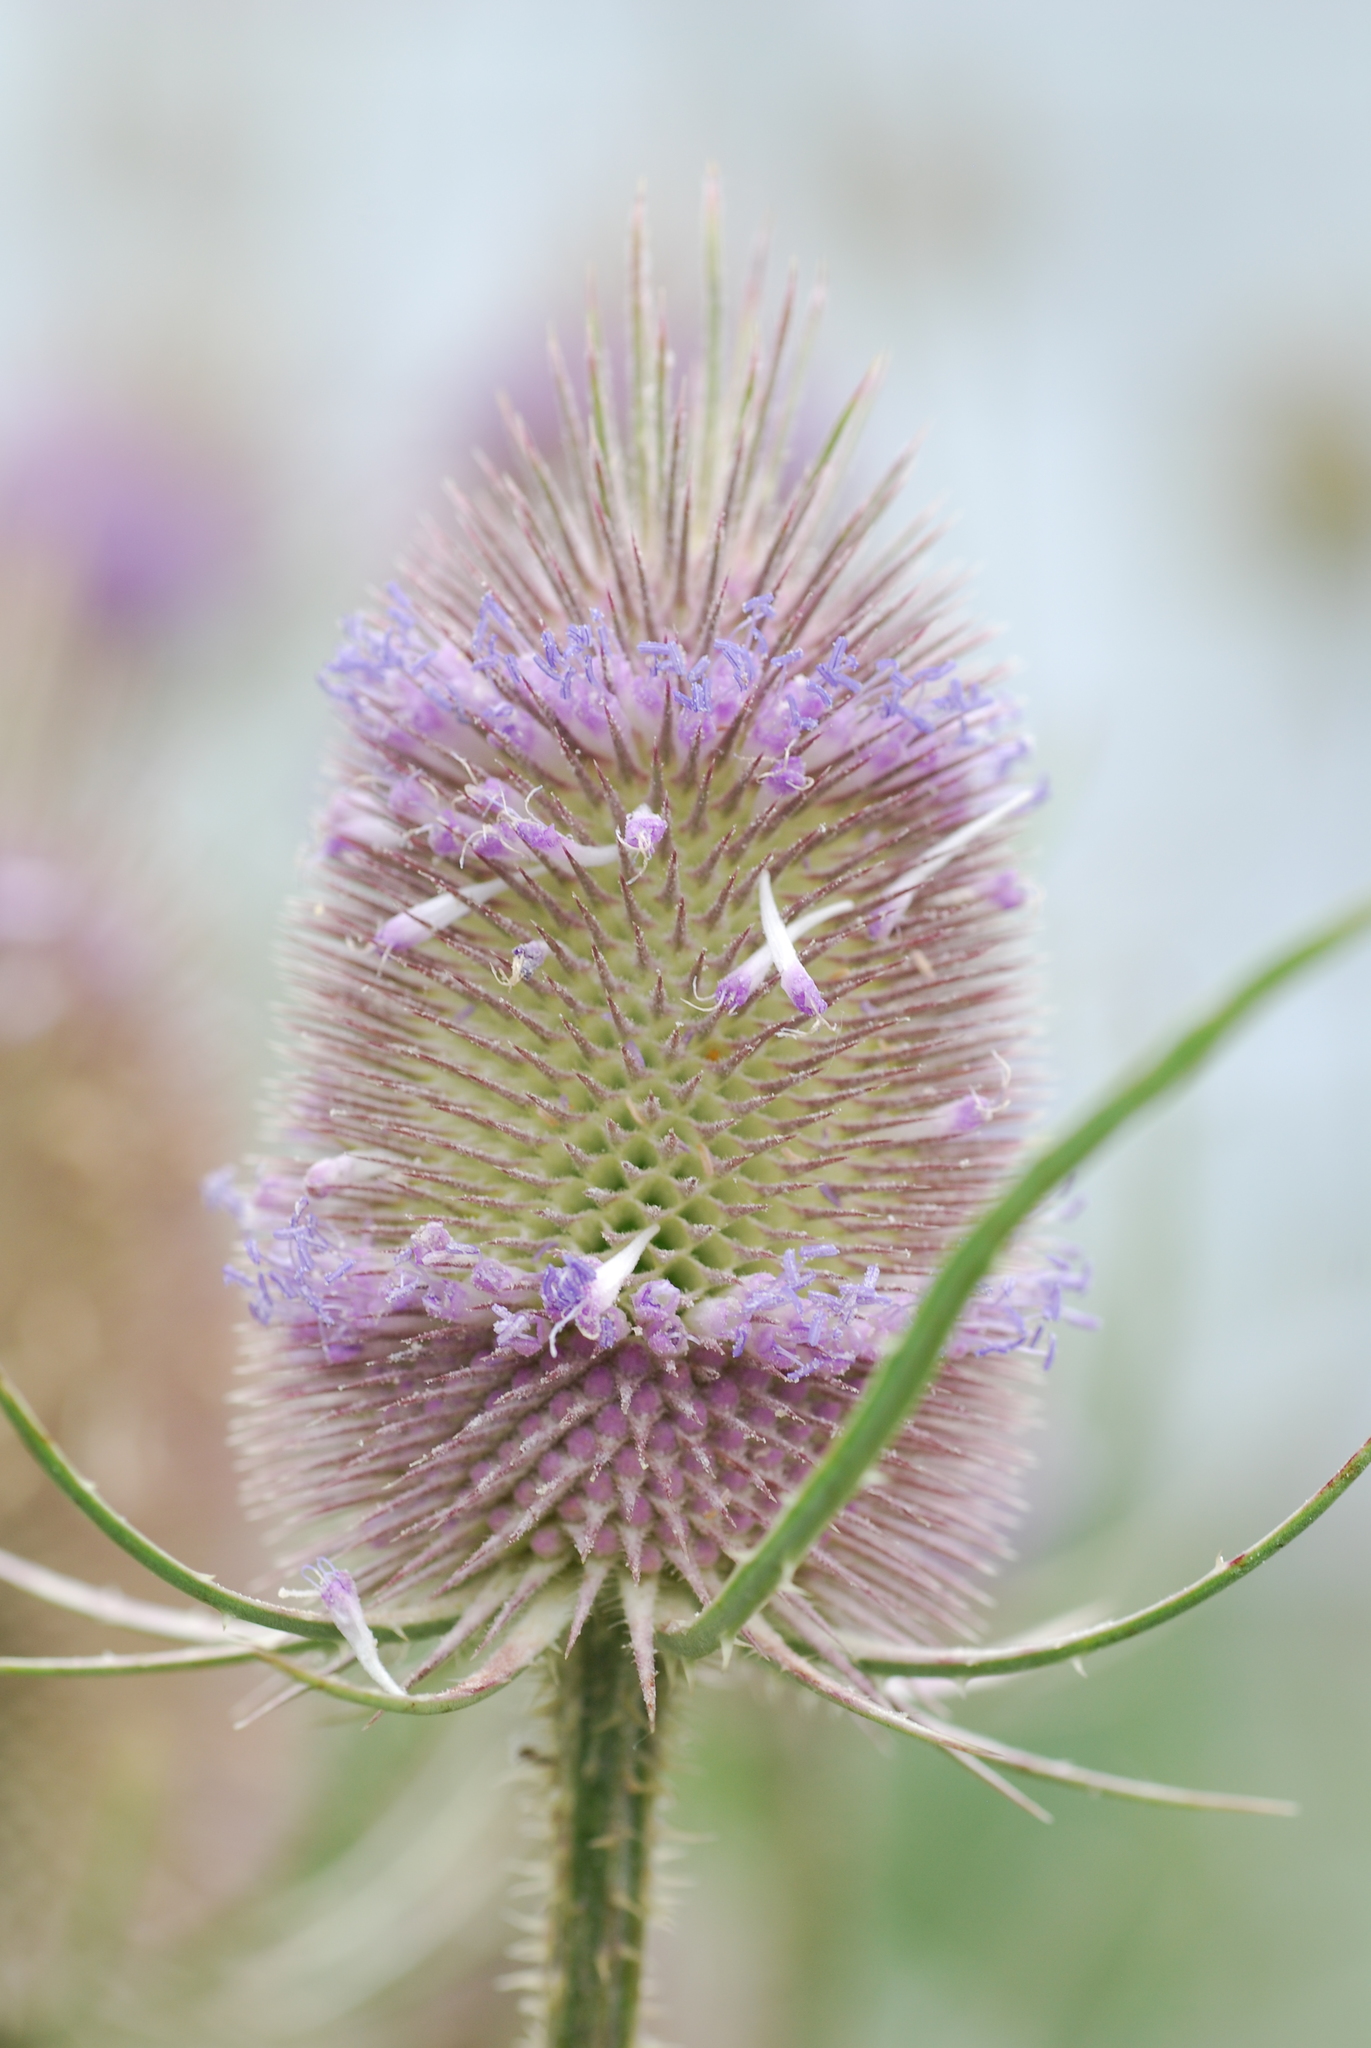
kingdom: Plantae
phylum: Tracheophyta
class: Magnoliopsida
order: Dipsacales
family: Caprifoliaceae
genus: Dipsacus
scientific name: Dipsacus fullonum
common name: Teasel
